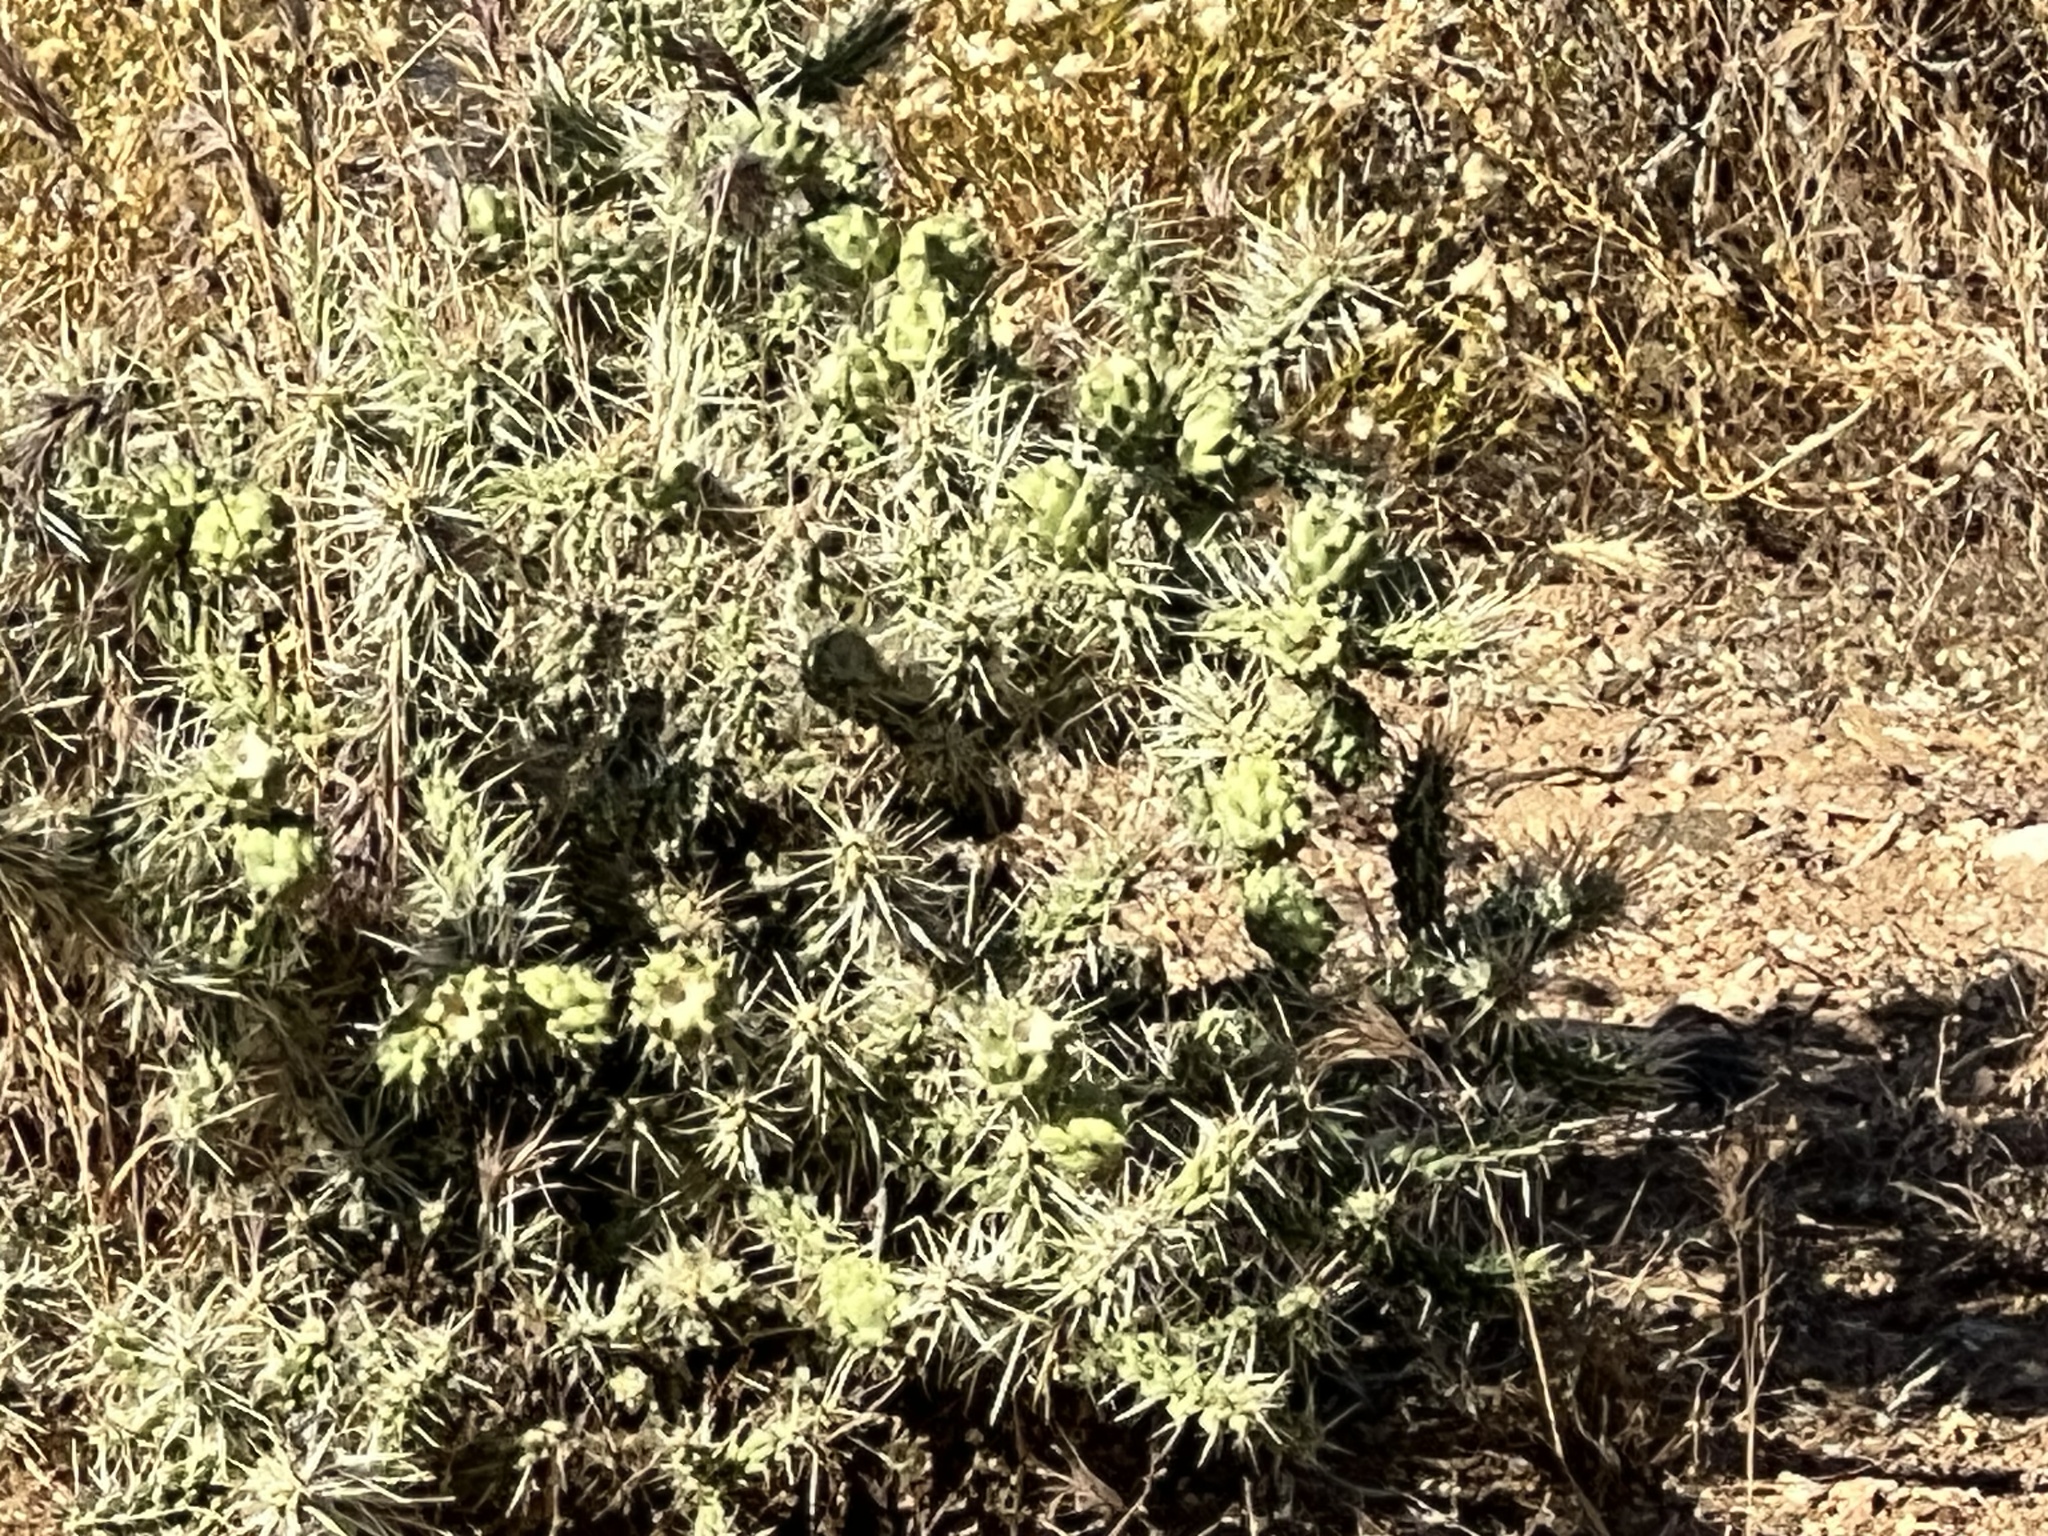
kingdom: Plantae
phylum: Tracheophyta
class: Magnoliopsida
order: Caryophyllales
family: Cactaceae
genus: Cylindropuntia
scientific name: Cylindropuntia whipplei
